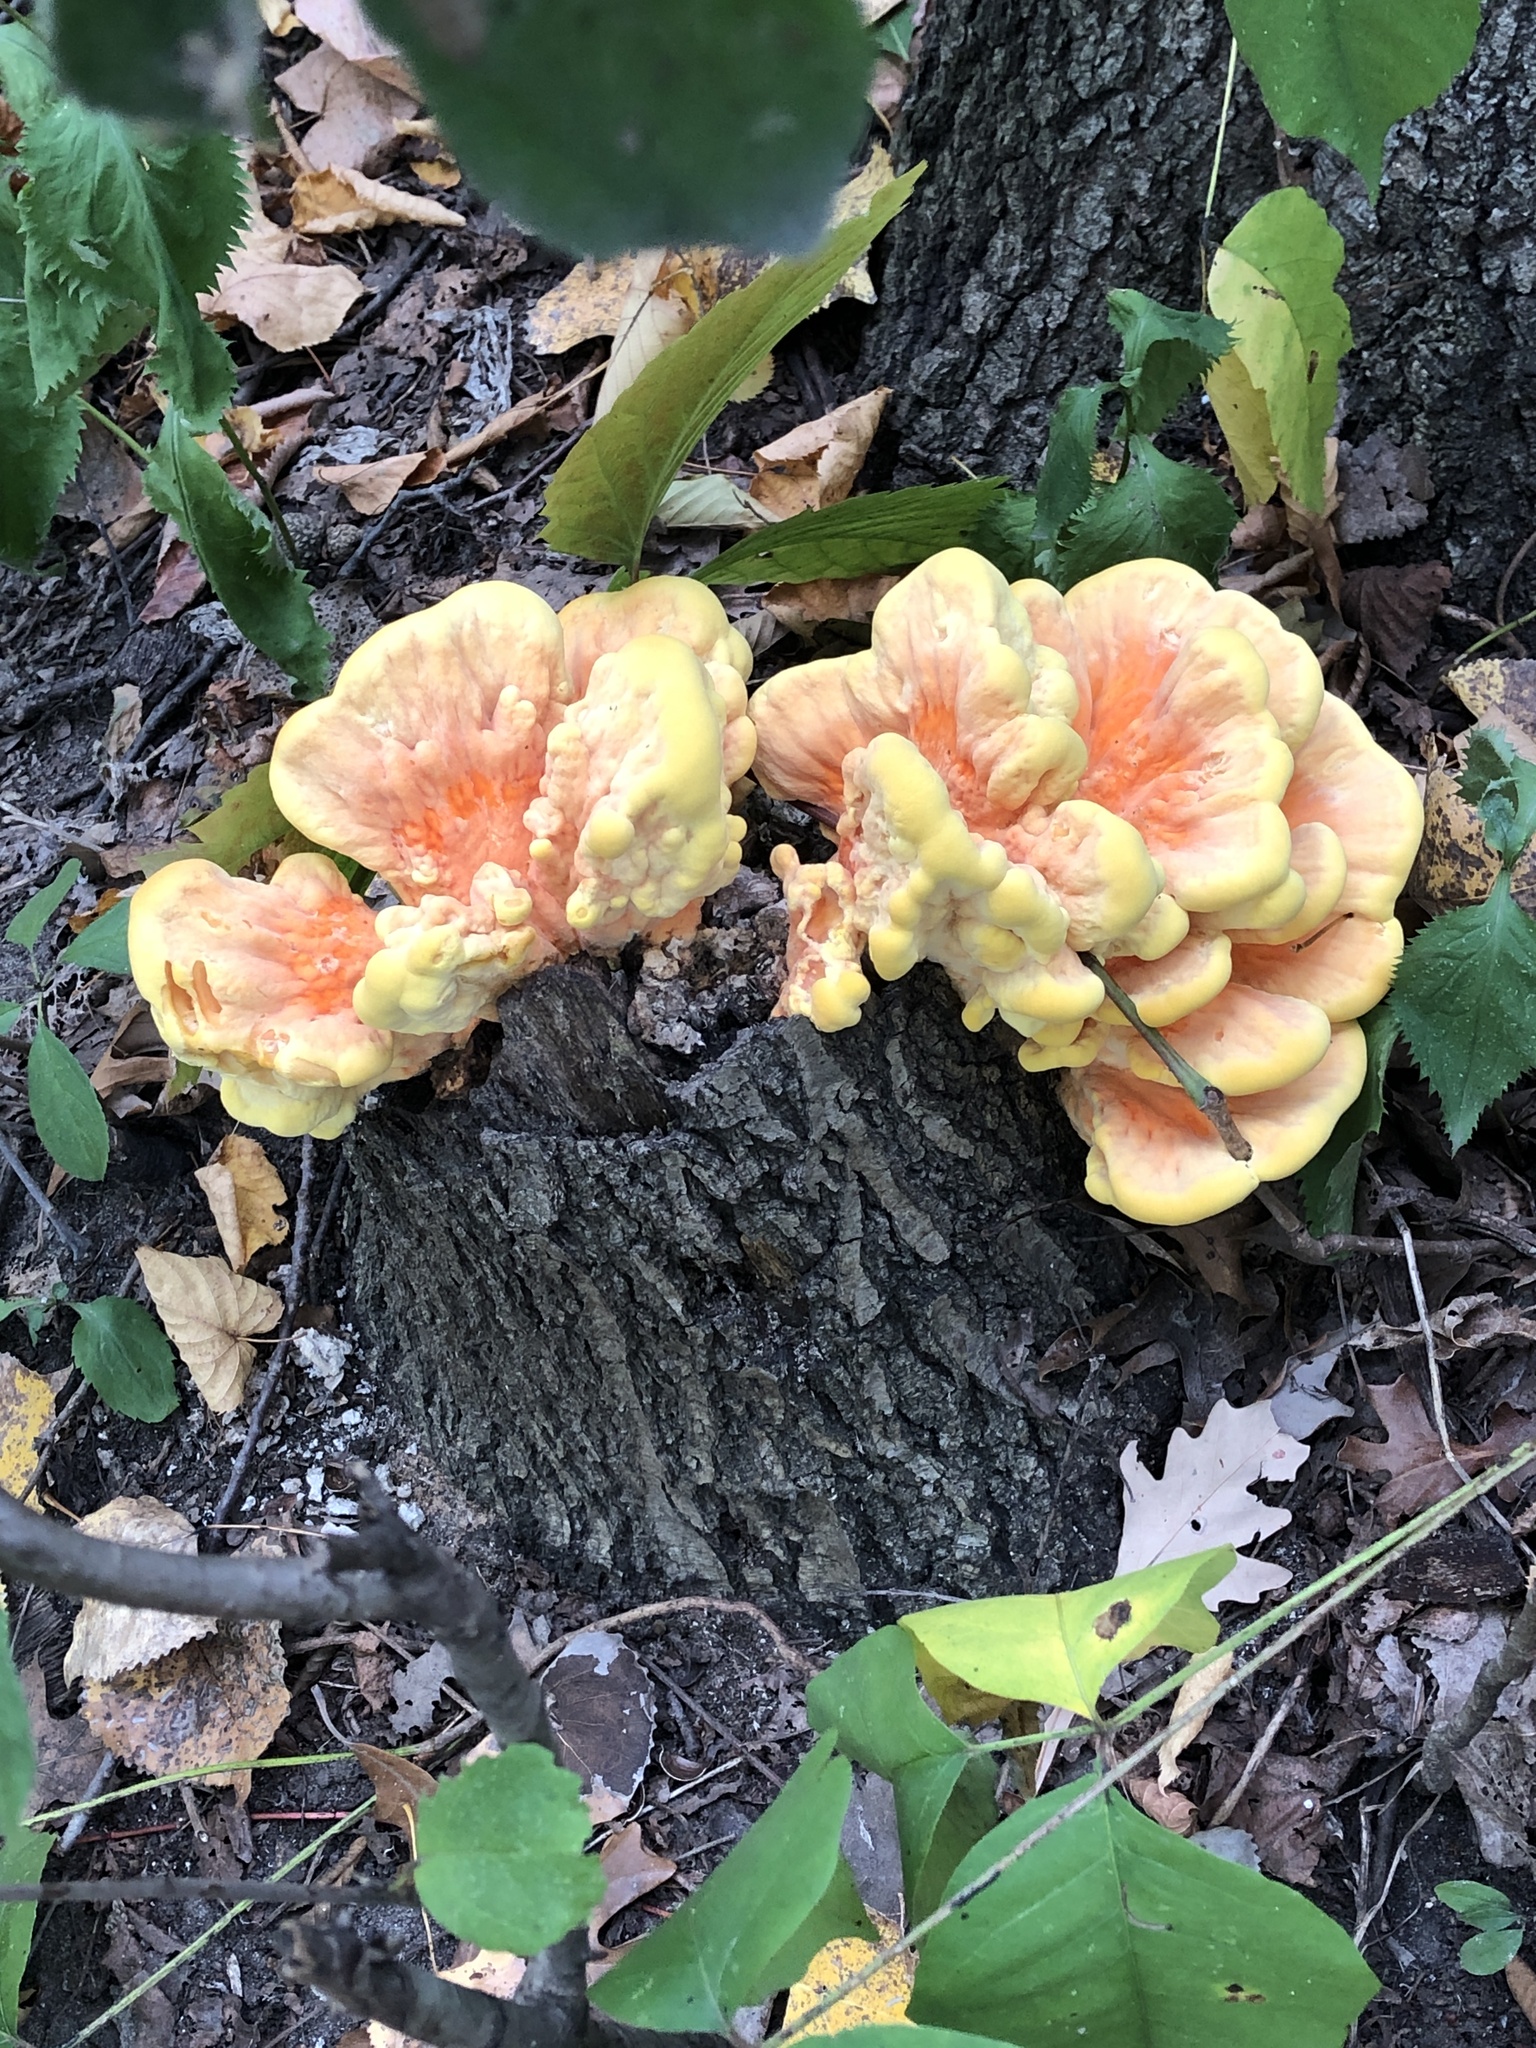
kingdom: Fungi
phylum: Basidiomycota
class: Agaricomycetes
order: Polyporales
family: Laetiporaceae
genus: Laetiporus
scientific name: Laetiporus sulphureus
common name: Chicken of the woods
